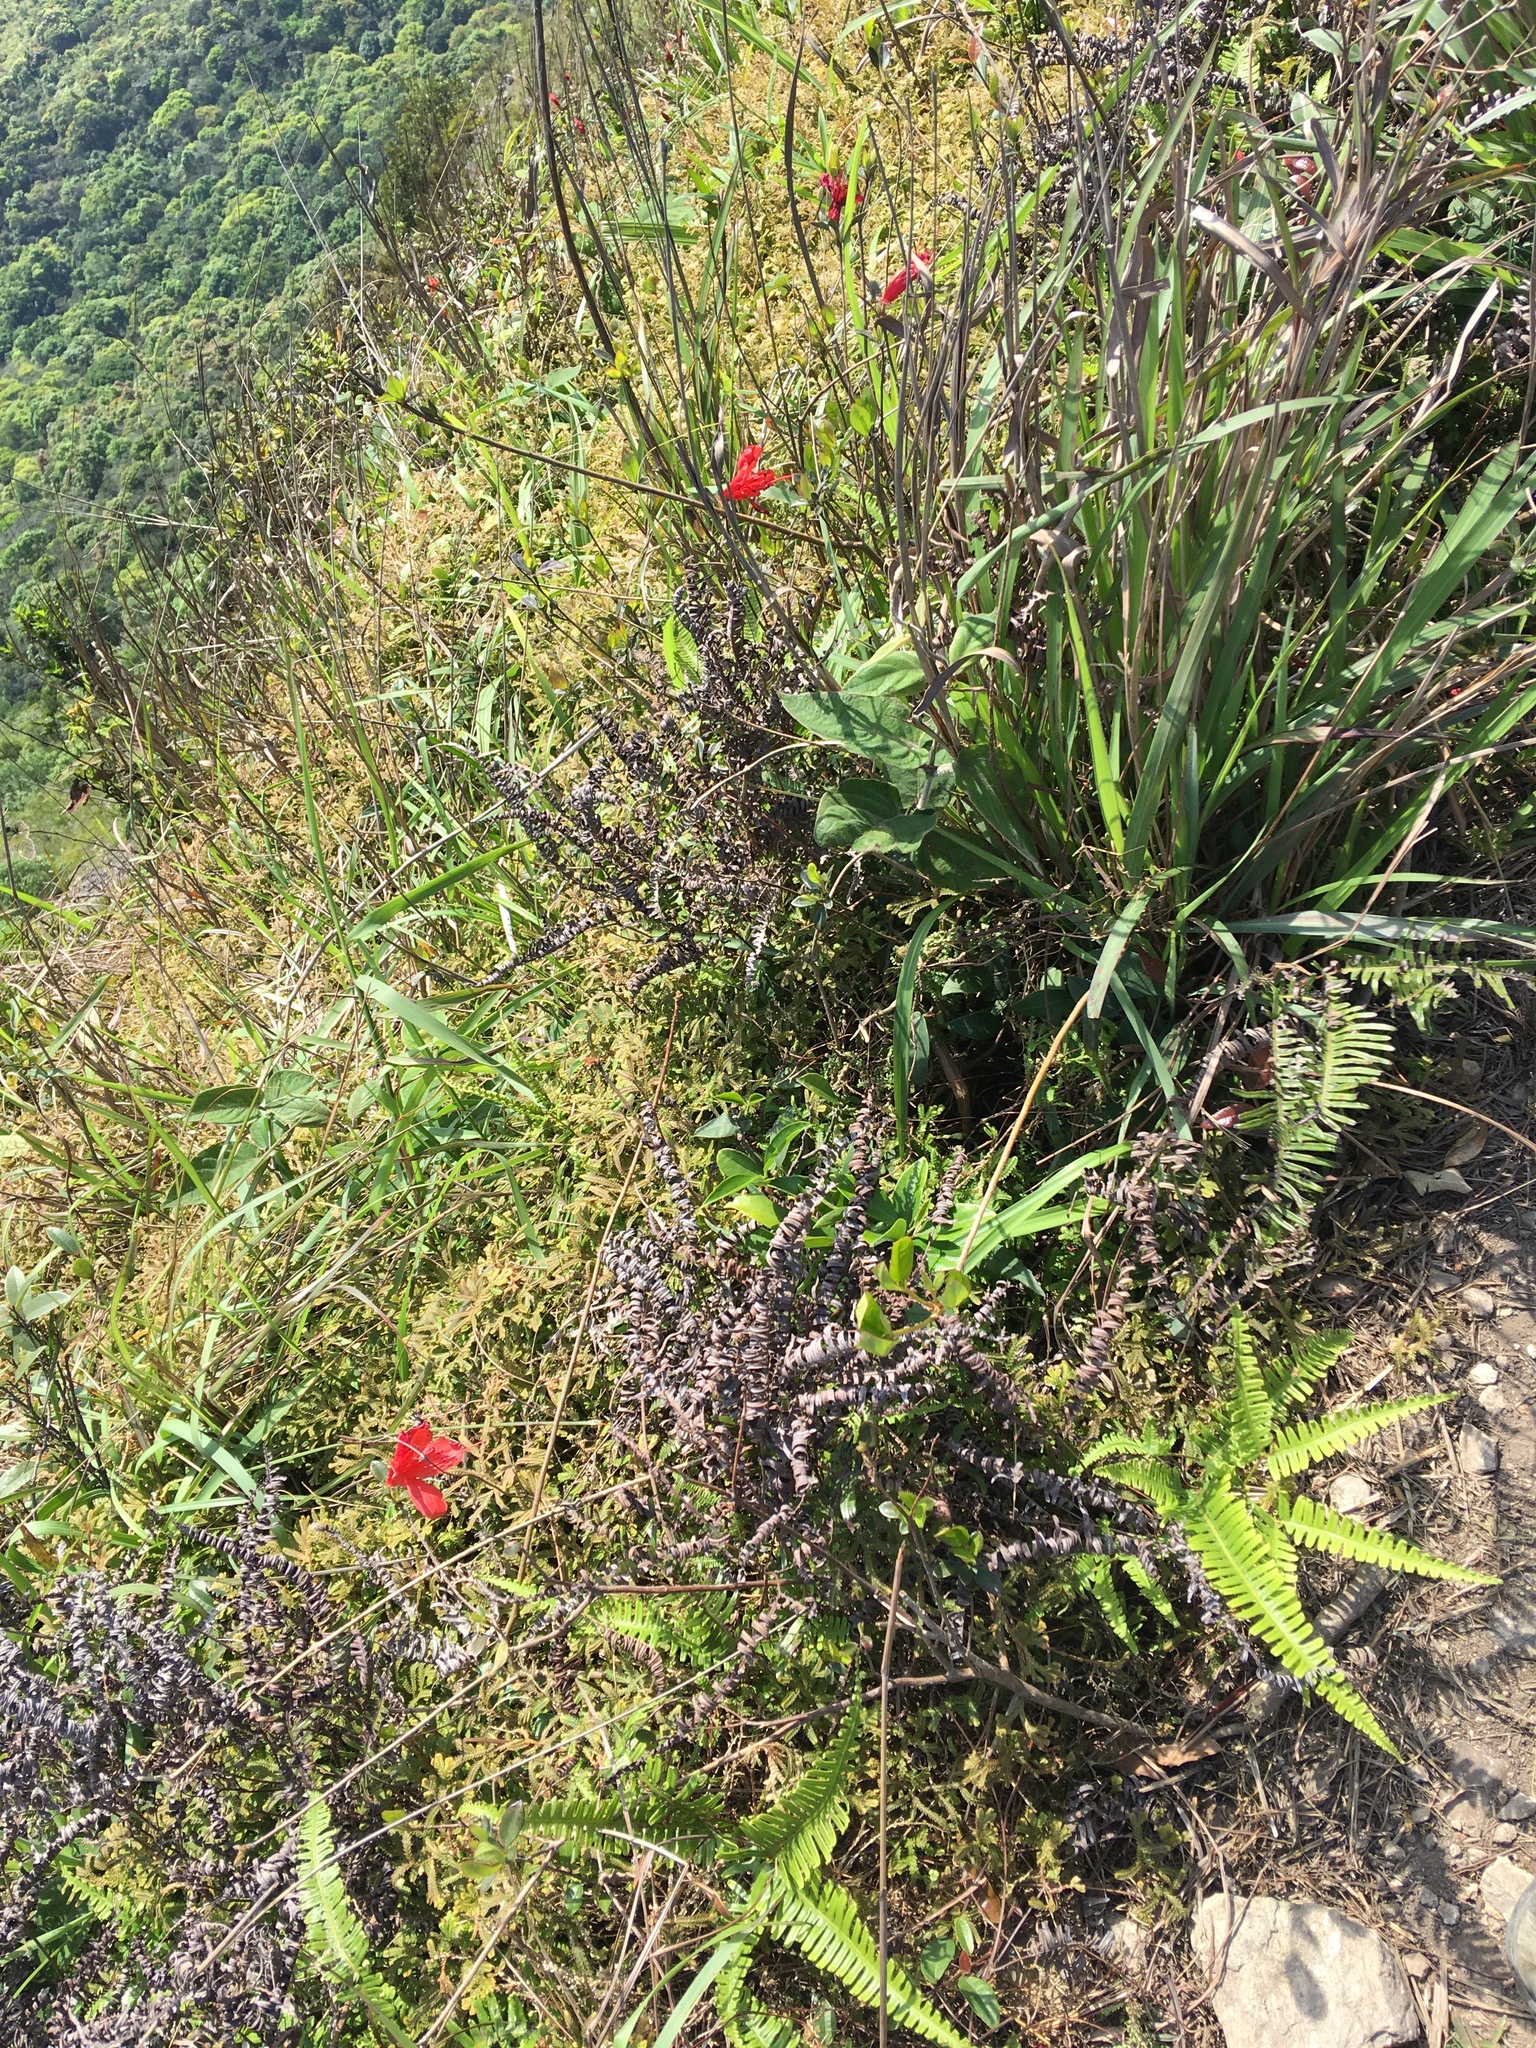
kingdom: Plantae
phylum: Tracheophyta
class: Magnoliopsida
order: Ericales
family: Ericaceae
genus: Rhododendron
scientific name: Rhododendron simsii
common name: Rhododendron
